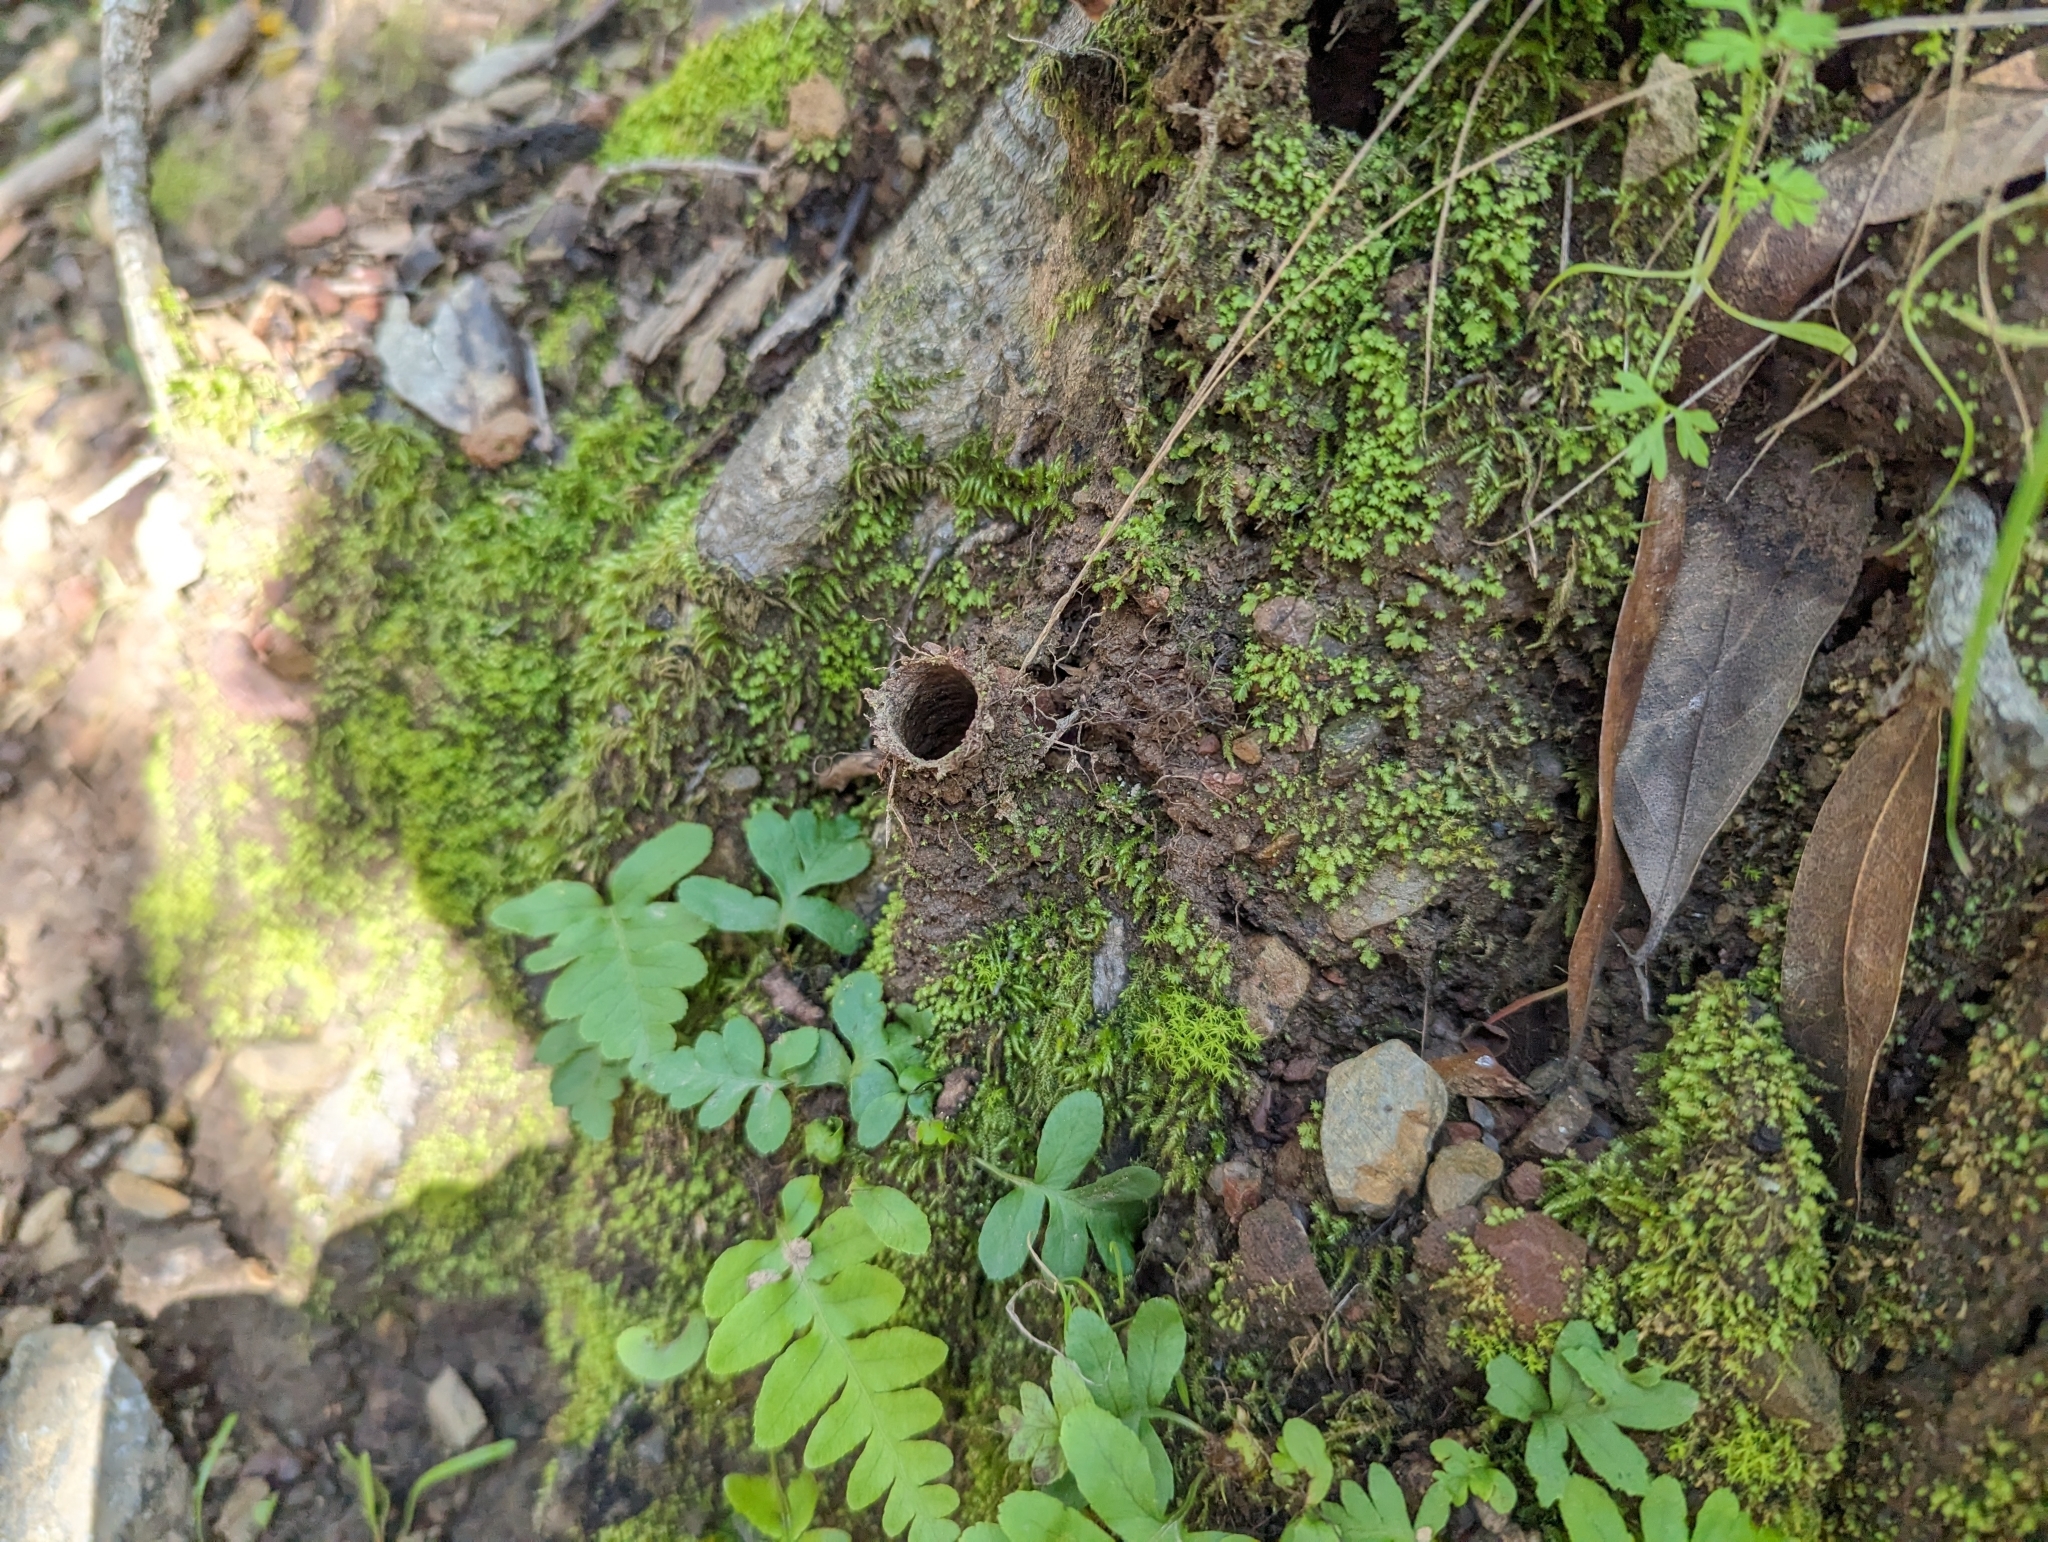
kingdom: Animalia
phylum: Arthropoda
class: Arachnida
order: Araneae
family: Antrodiaetidae
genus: Atypoides
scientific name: Atypoides riversi
